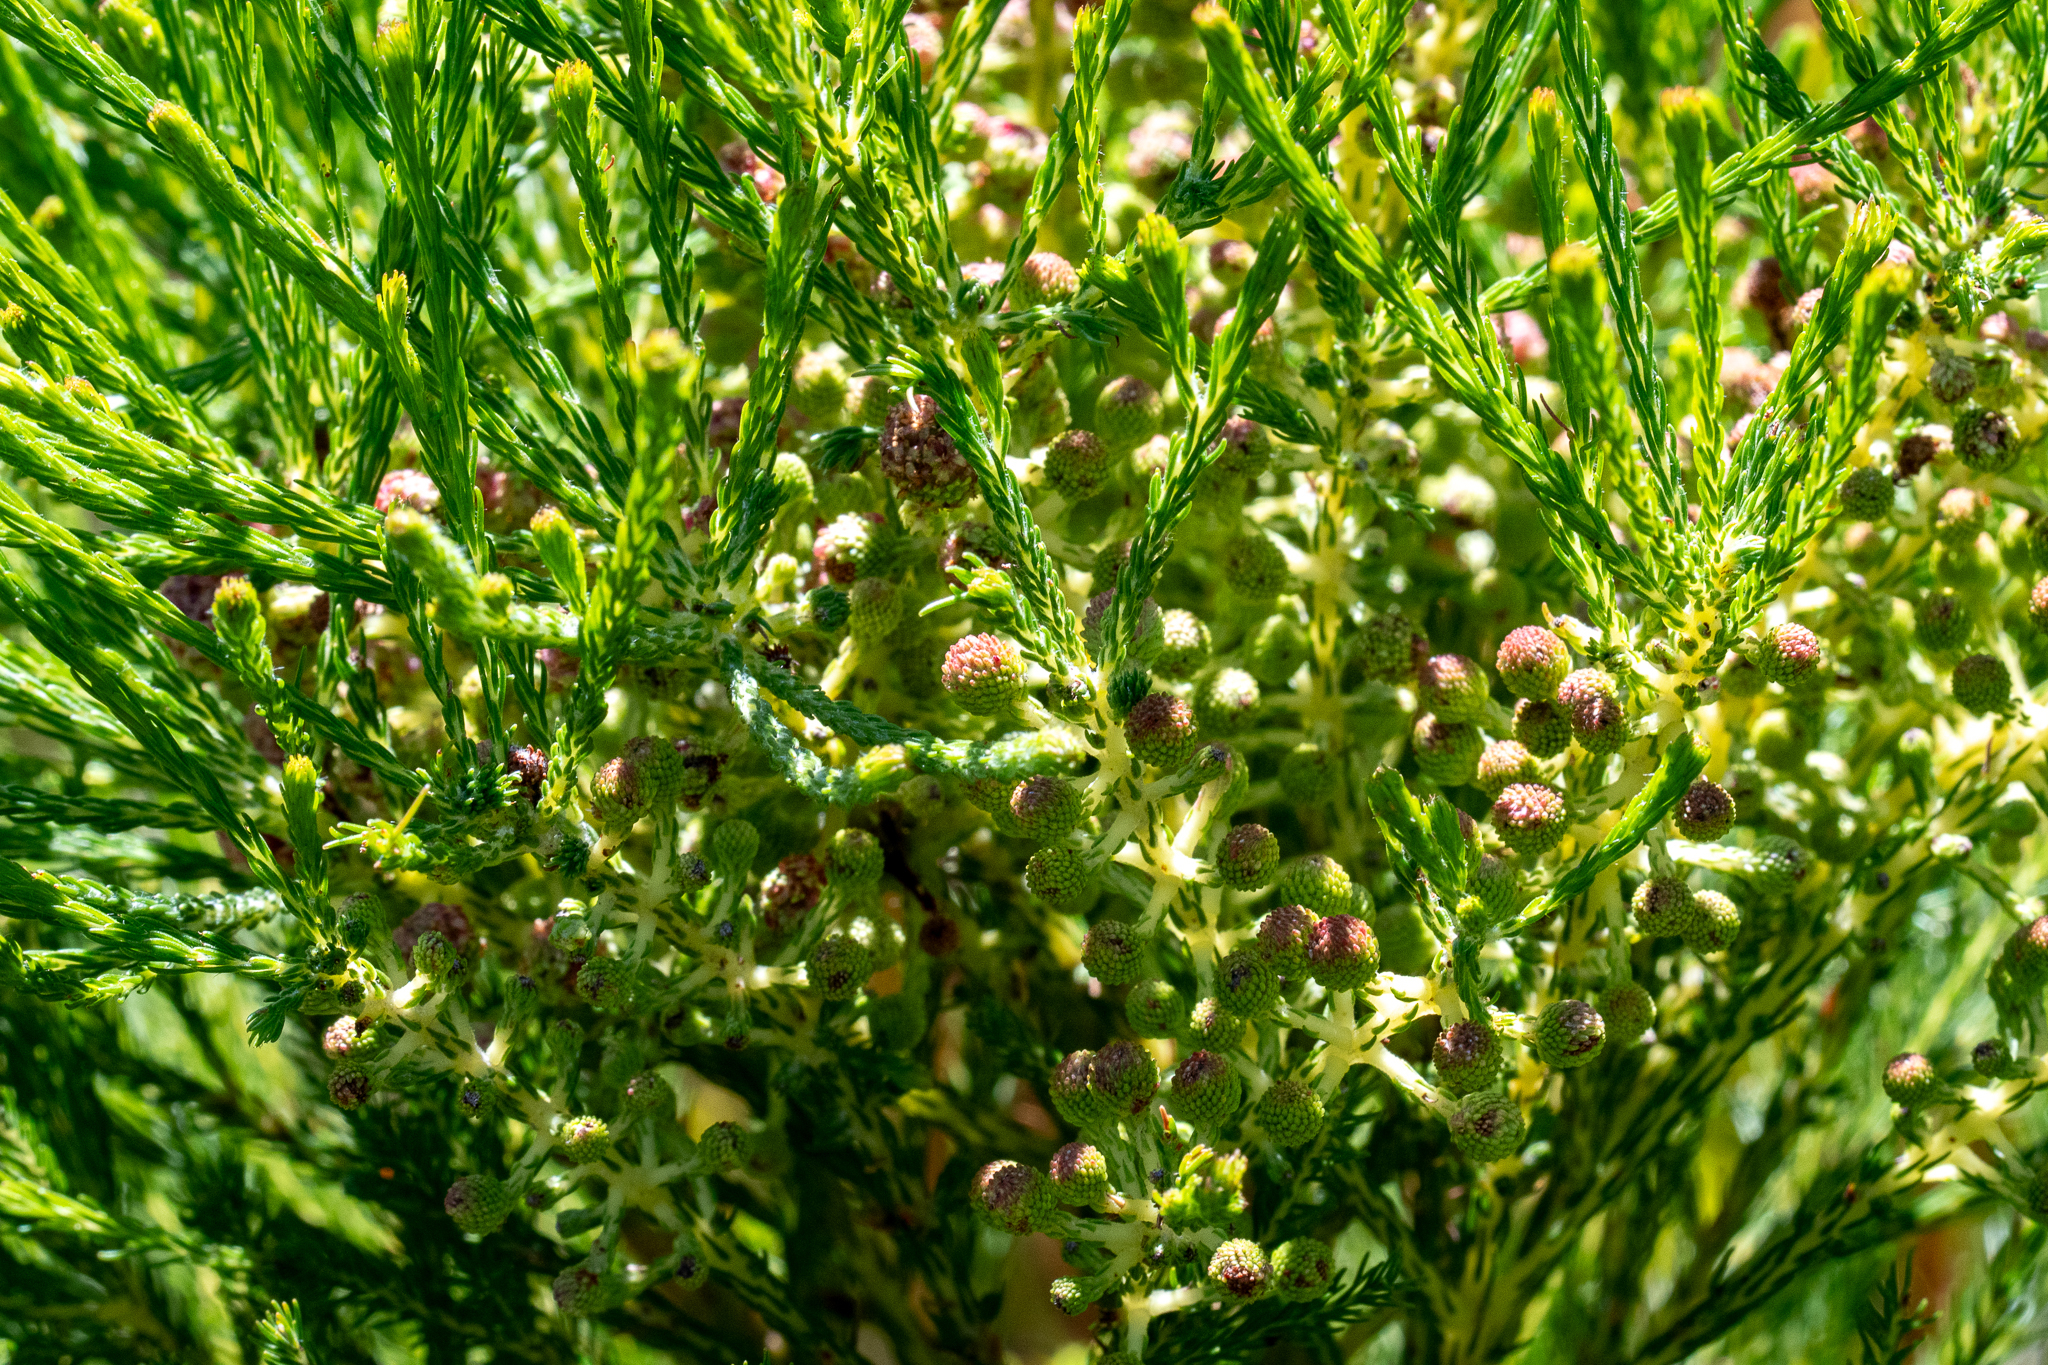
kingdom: Plantae
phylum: Tracheophyta
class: Magnoliopsida
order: Bruniales
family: Bruniaceae
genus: Berzelia
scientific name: Berzelia lanuginosa
